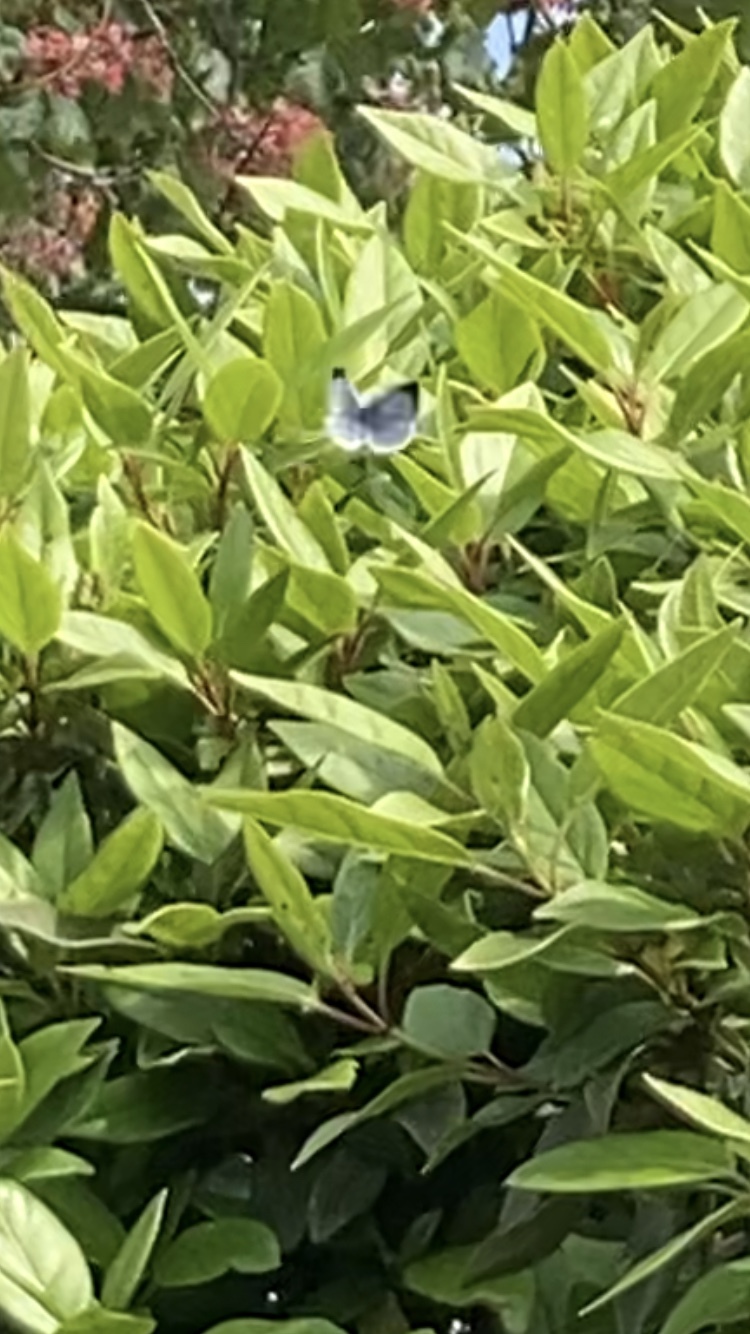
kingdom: Animalia
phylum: Arthropoda
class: Insecta
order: Lepidoptera
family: Lycaenidae
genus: Celastrina
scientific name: Celastrina argiolus
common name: Holly blue
